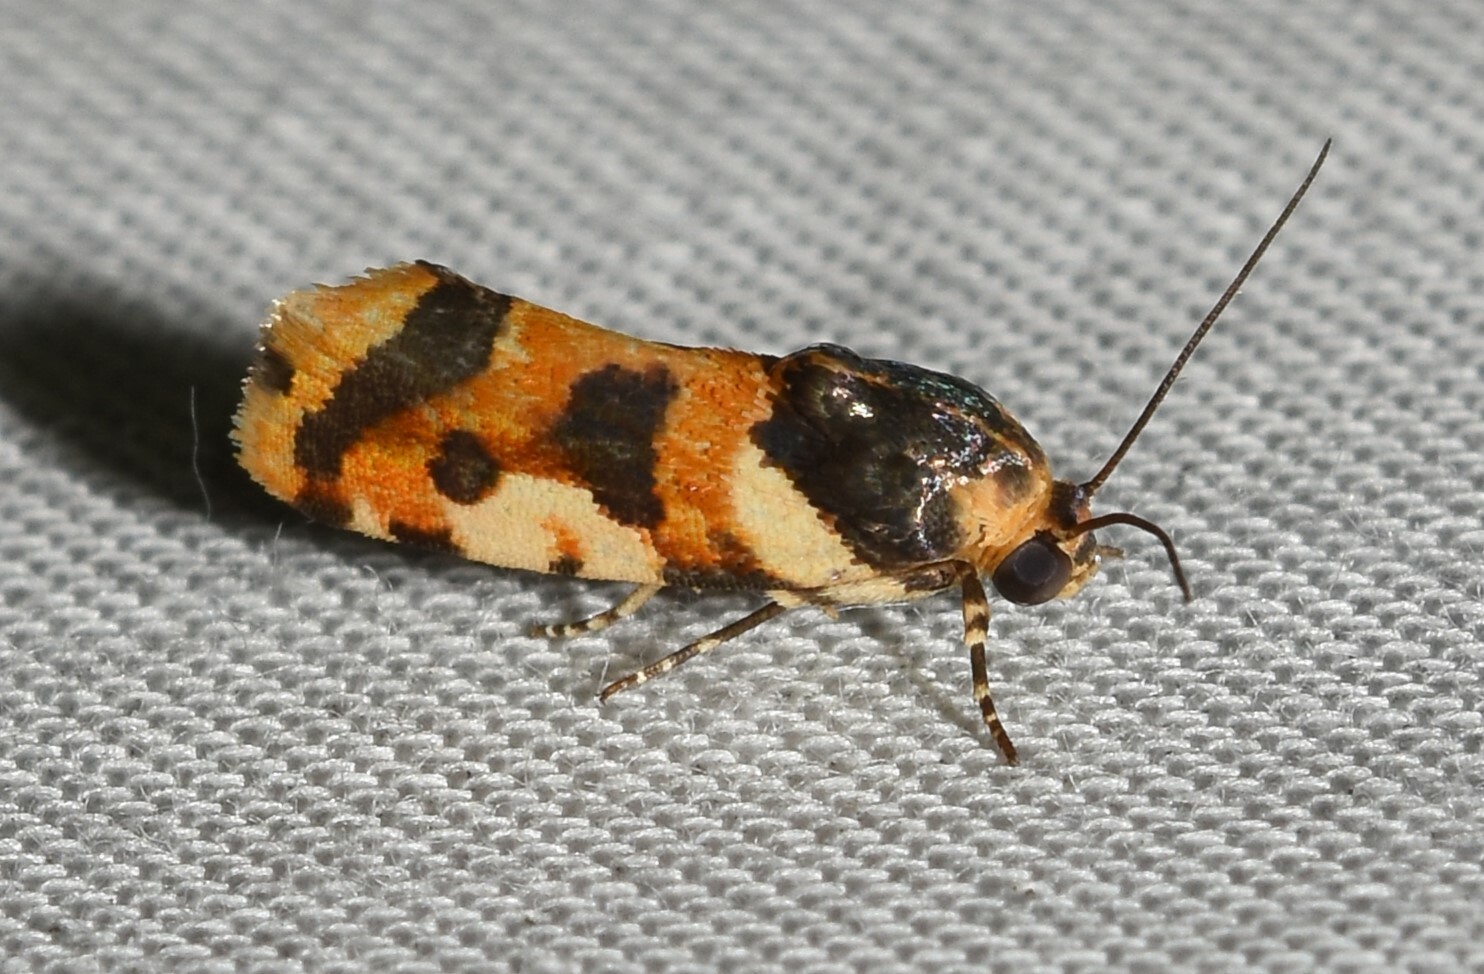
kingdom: Animalia
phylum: Arthropoda
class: Insecta
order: Lepidoptera
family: Noctuidae
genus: Acontia
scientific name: Acontia dama
